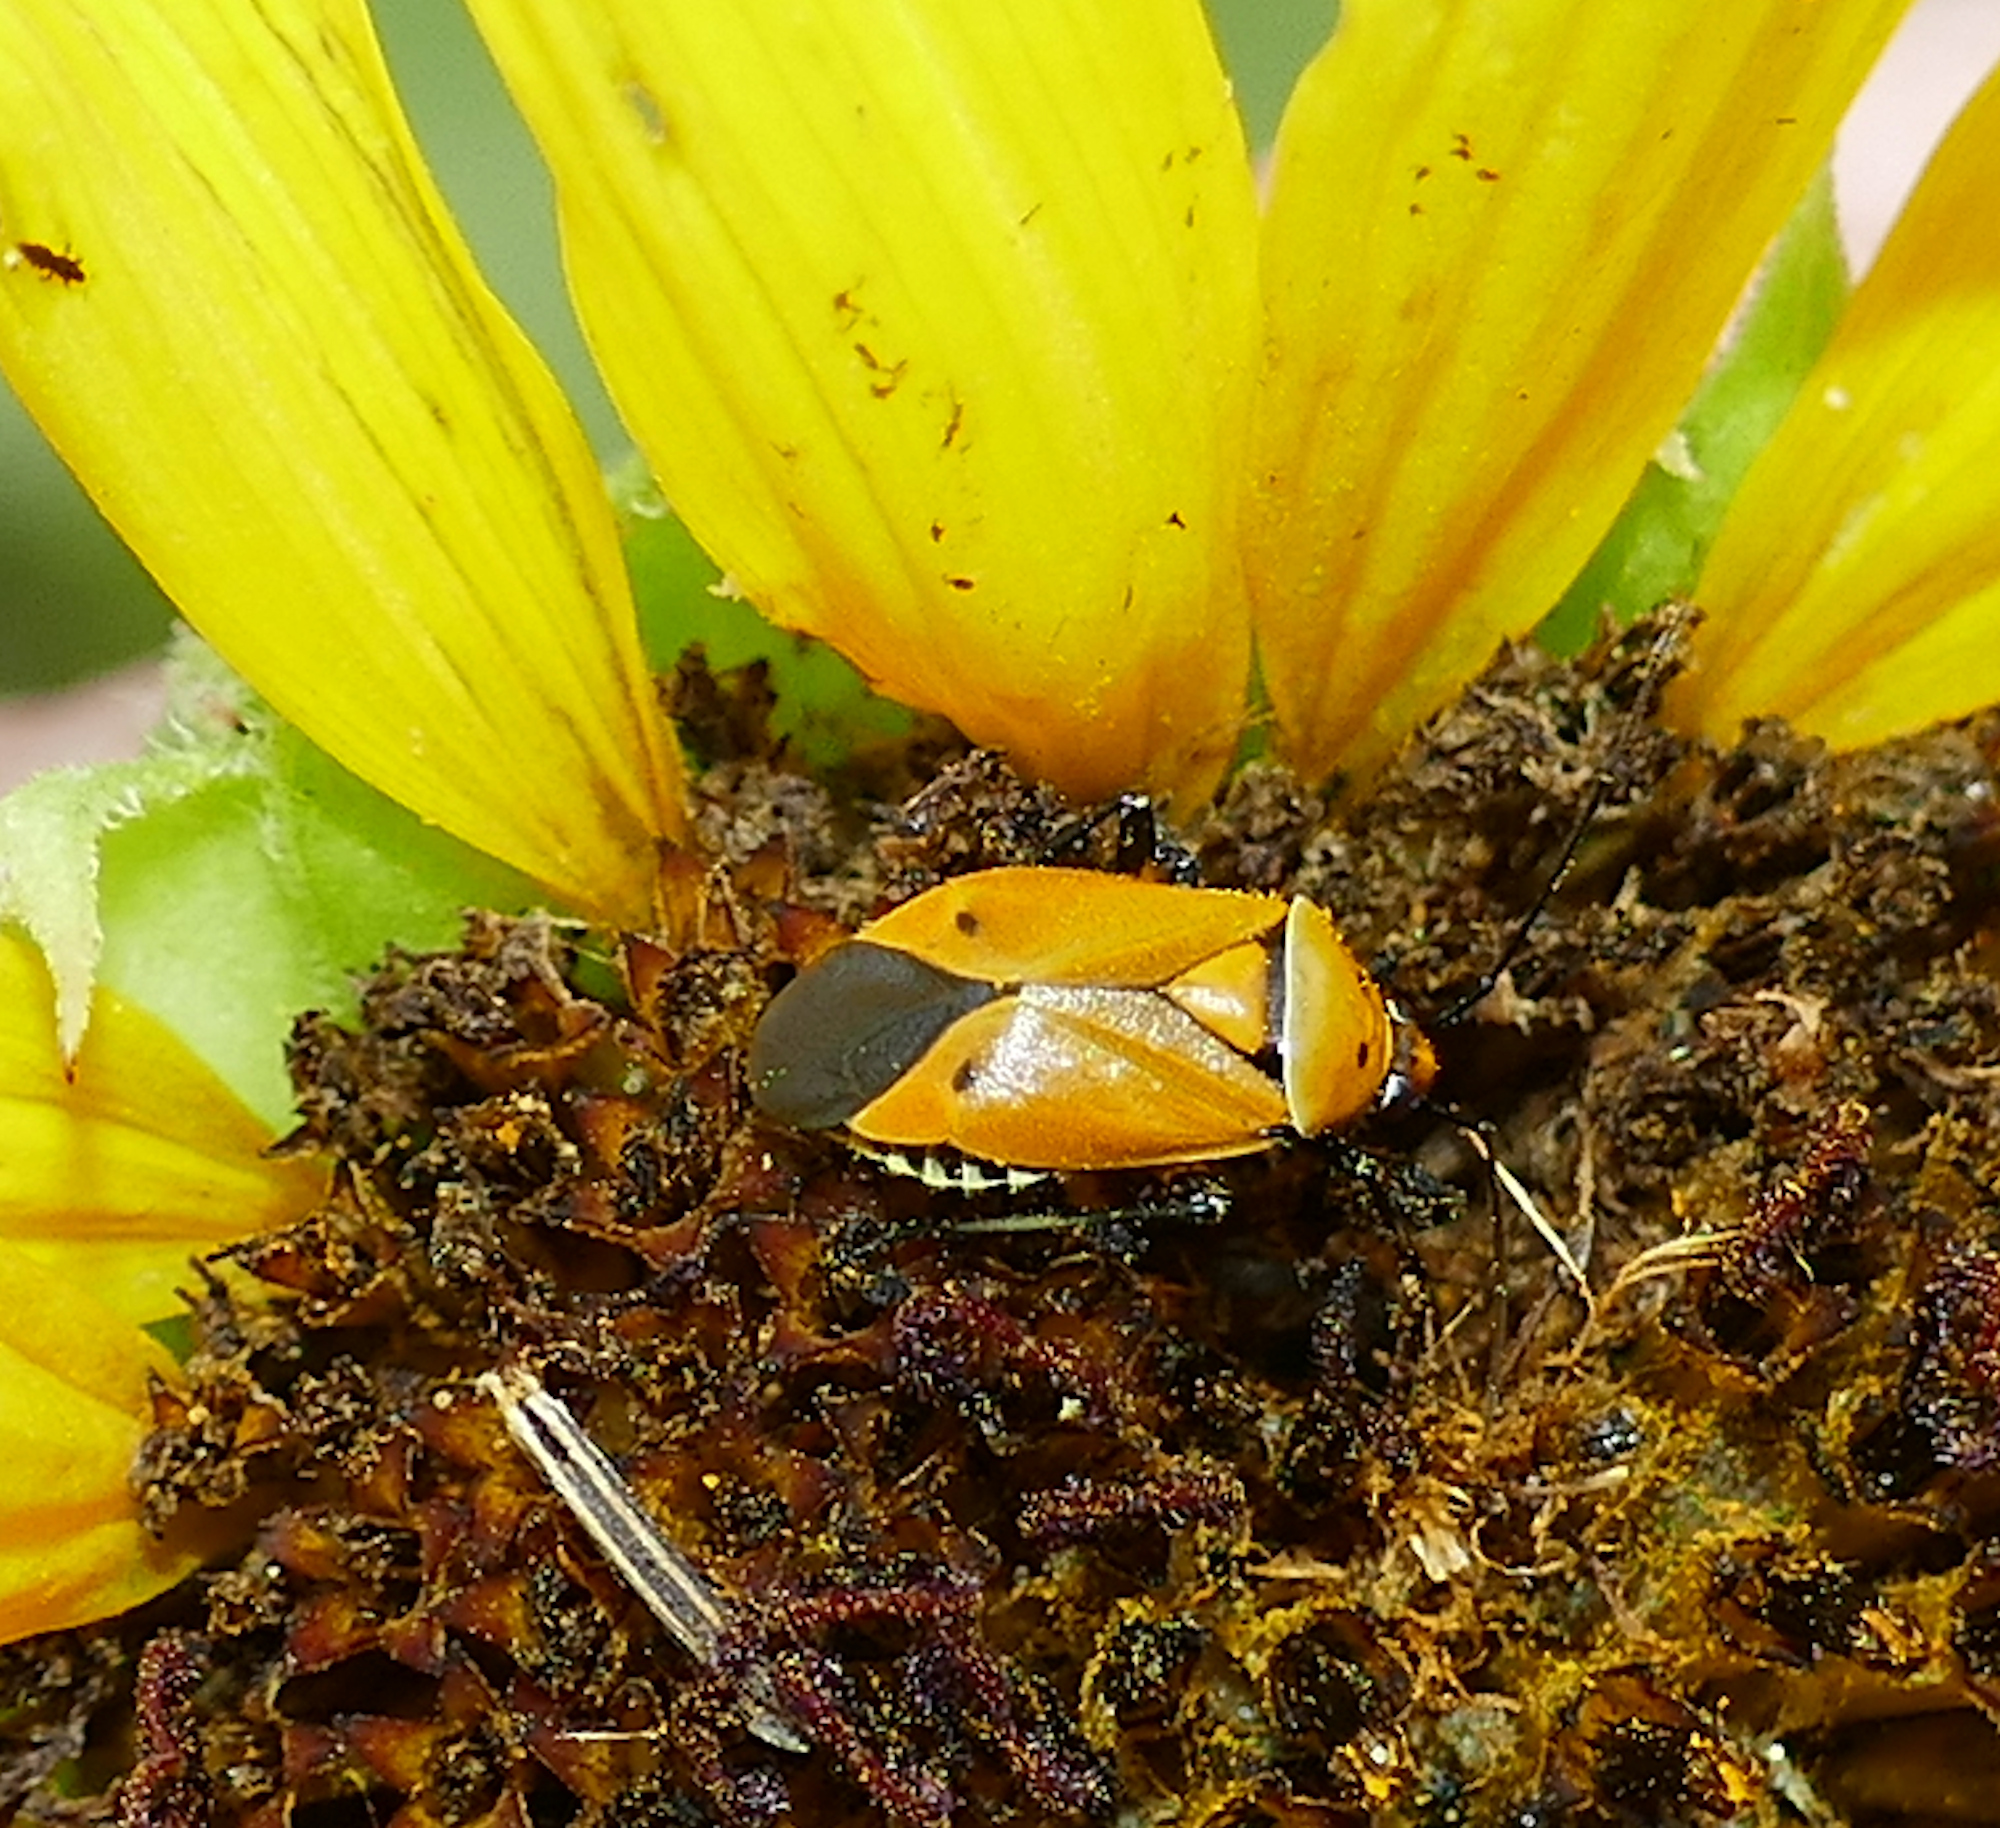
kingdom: Animalia
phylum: Arthropoda
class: Insecta
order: Hemiptera
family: Miridae
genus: Neocapsus
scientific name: Neocapsus fasciativentris
